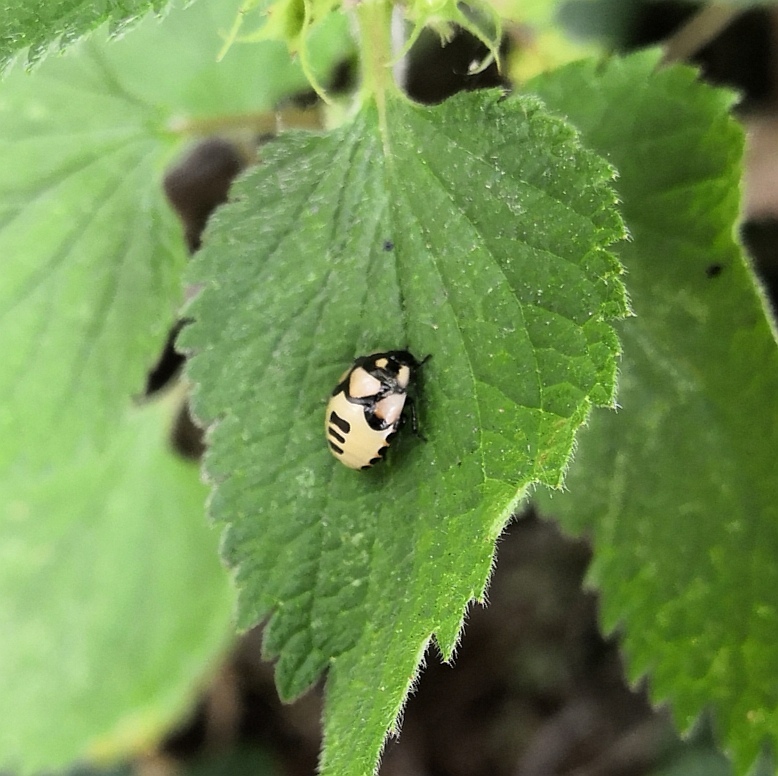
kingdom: Animalia
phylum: Arthropoda
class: Insecta
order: Hemiptera
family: Cydnidae
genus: Tritomegas
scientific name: Tritomegas bicolor
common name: Pied shieldbug
